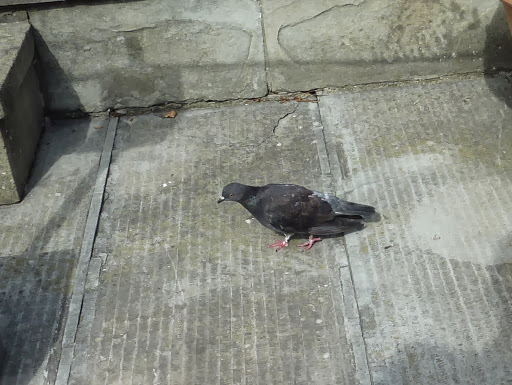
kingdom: Animalia
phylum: Chordata
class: Aves
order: Columbiformes
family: Columbidae
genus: Columba
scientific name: Columba livia
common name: Rock pigeon
